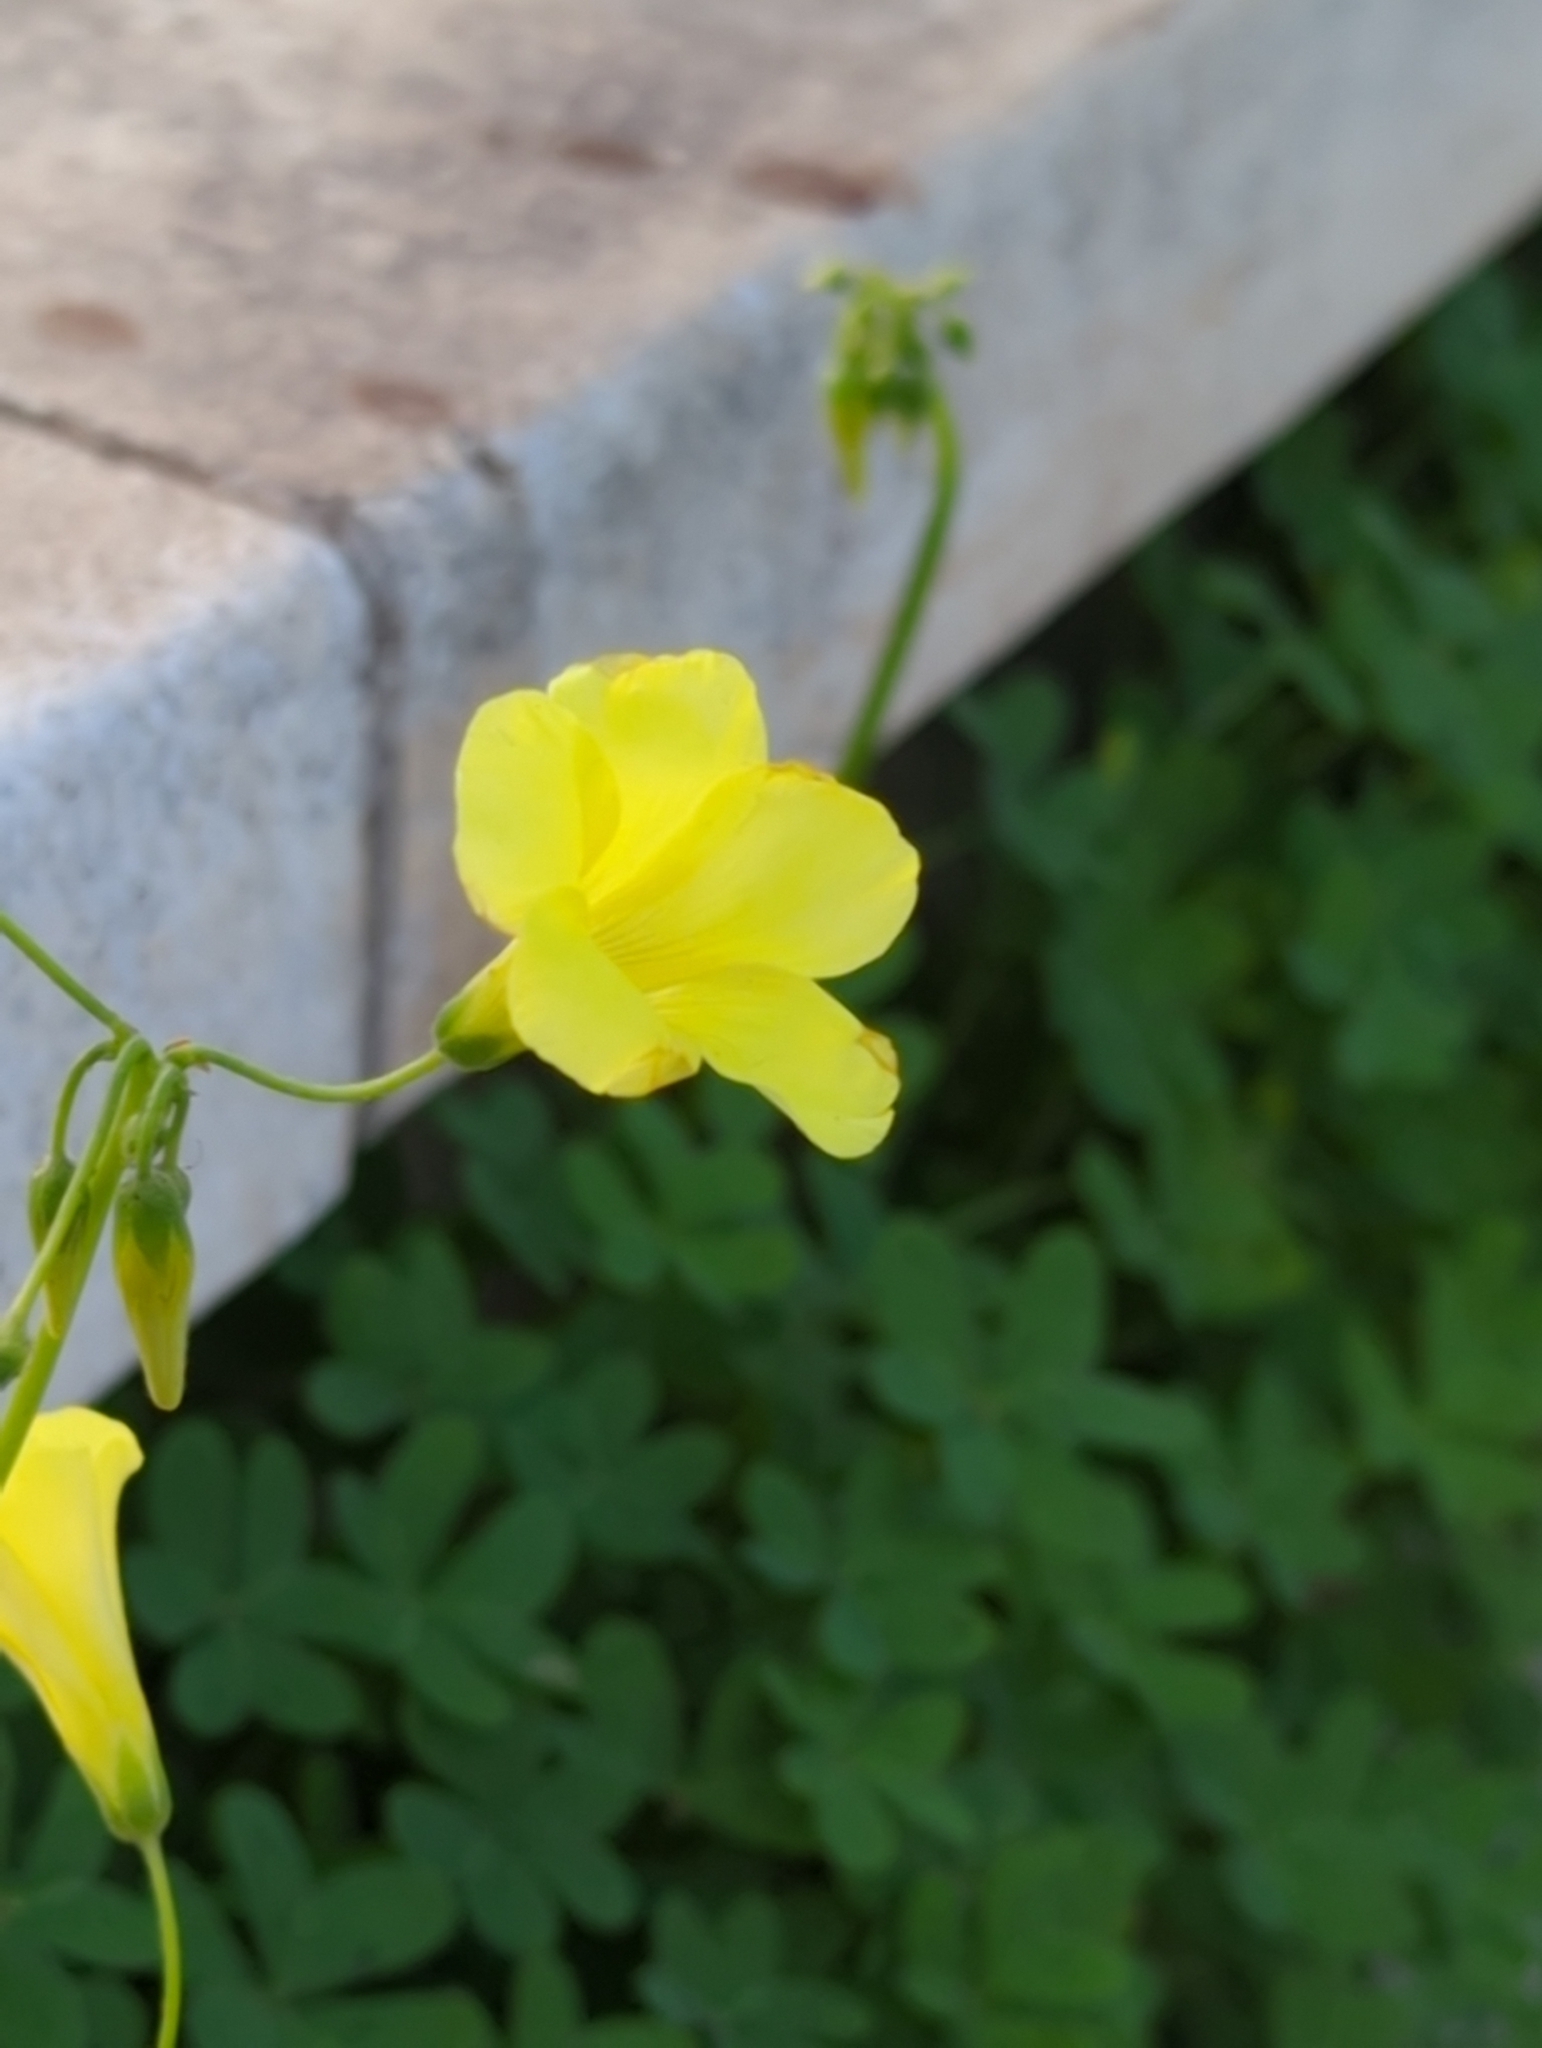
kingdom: Plantae
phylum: Tracheophyta
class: Magnoliopsida
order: Oxalidales
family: Oxalidaceae
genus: Oxalis
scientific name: Oxalis pes-caprae
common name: Bermuda-buttercup
